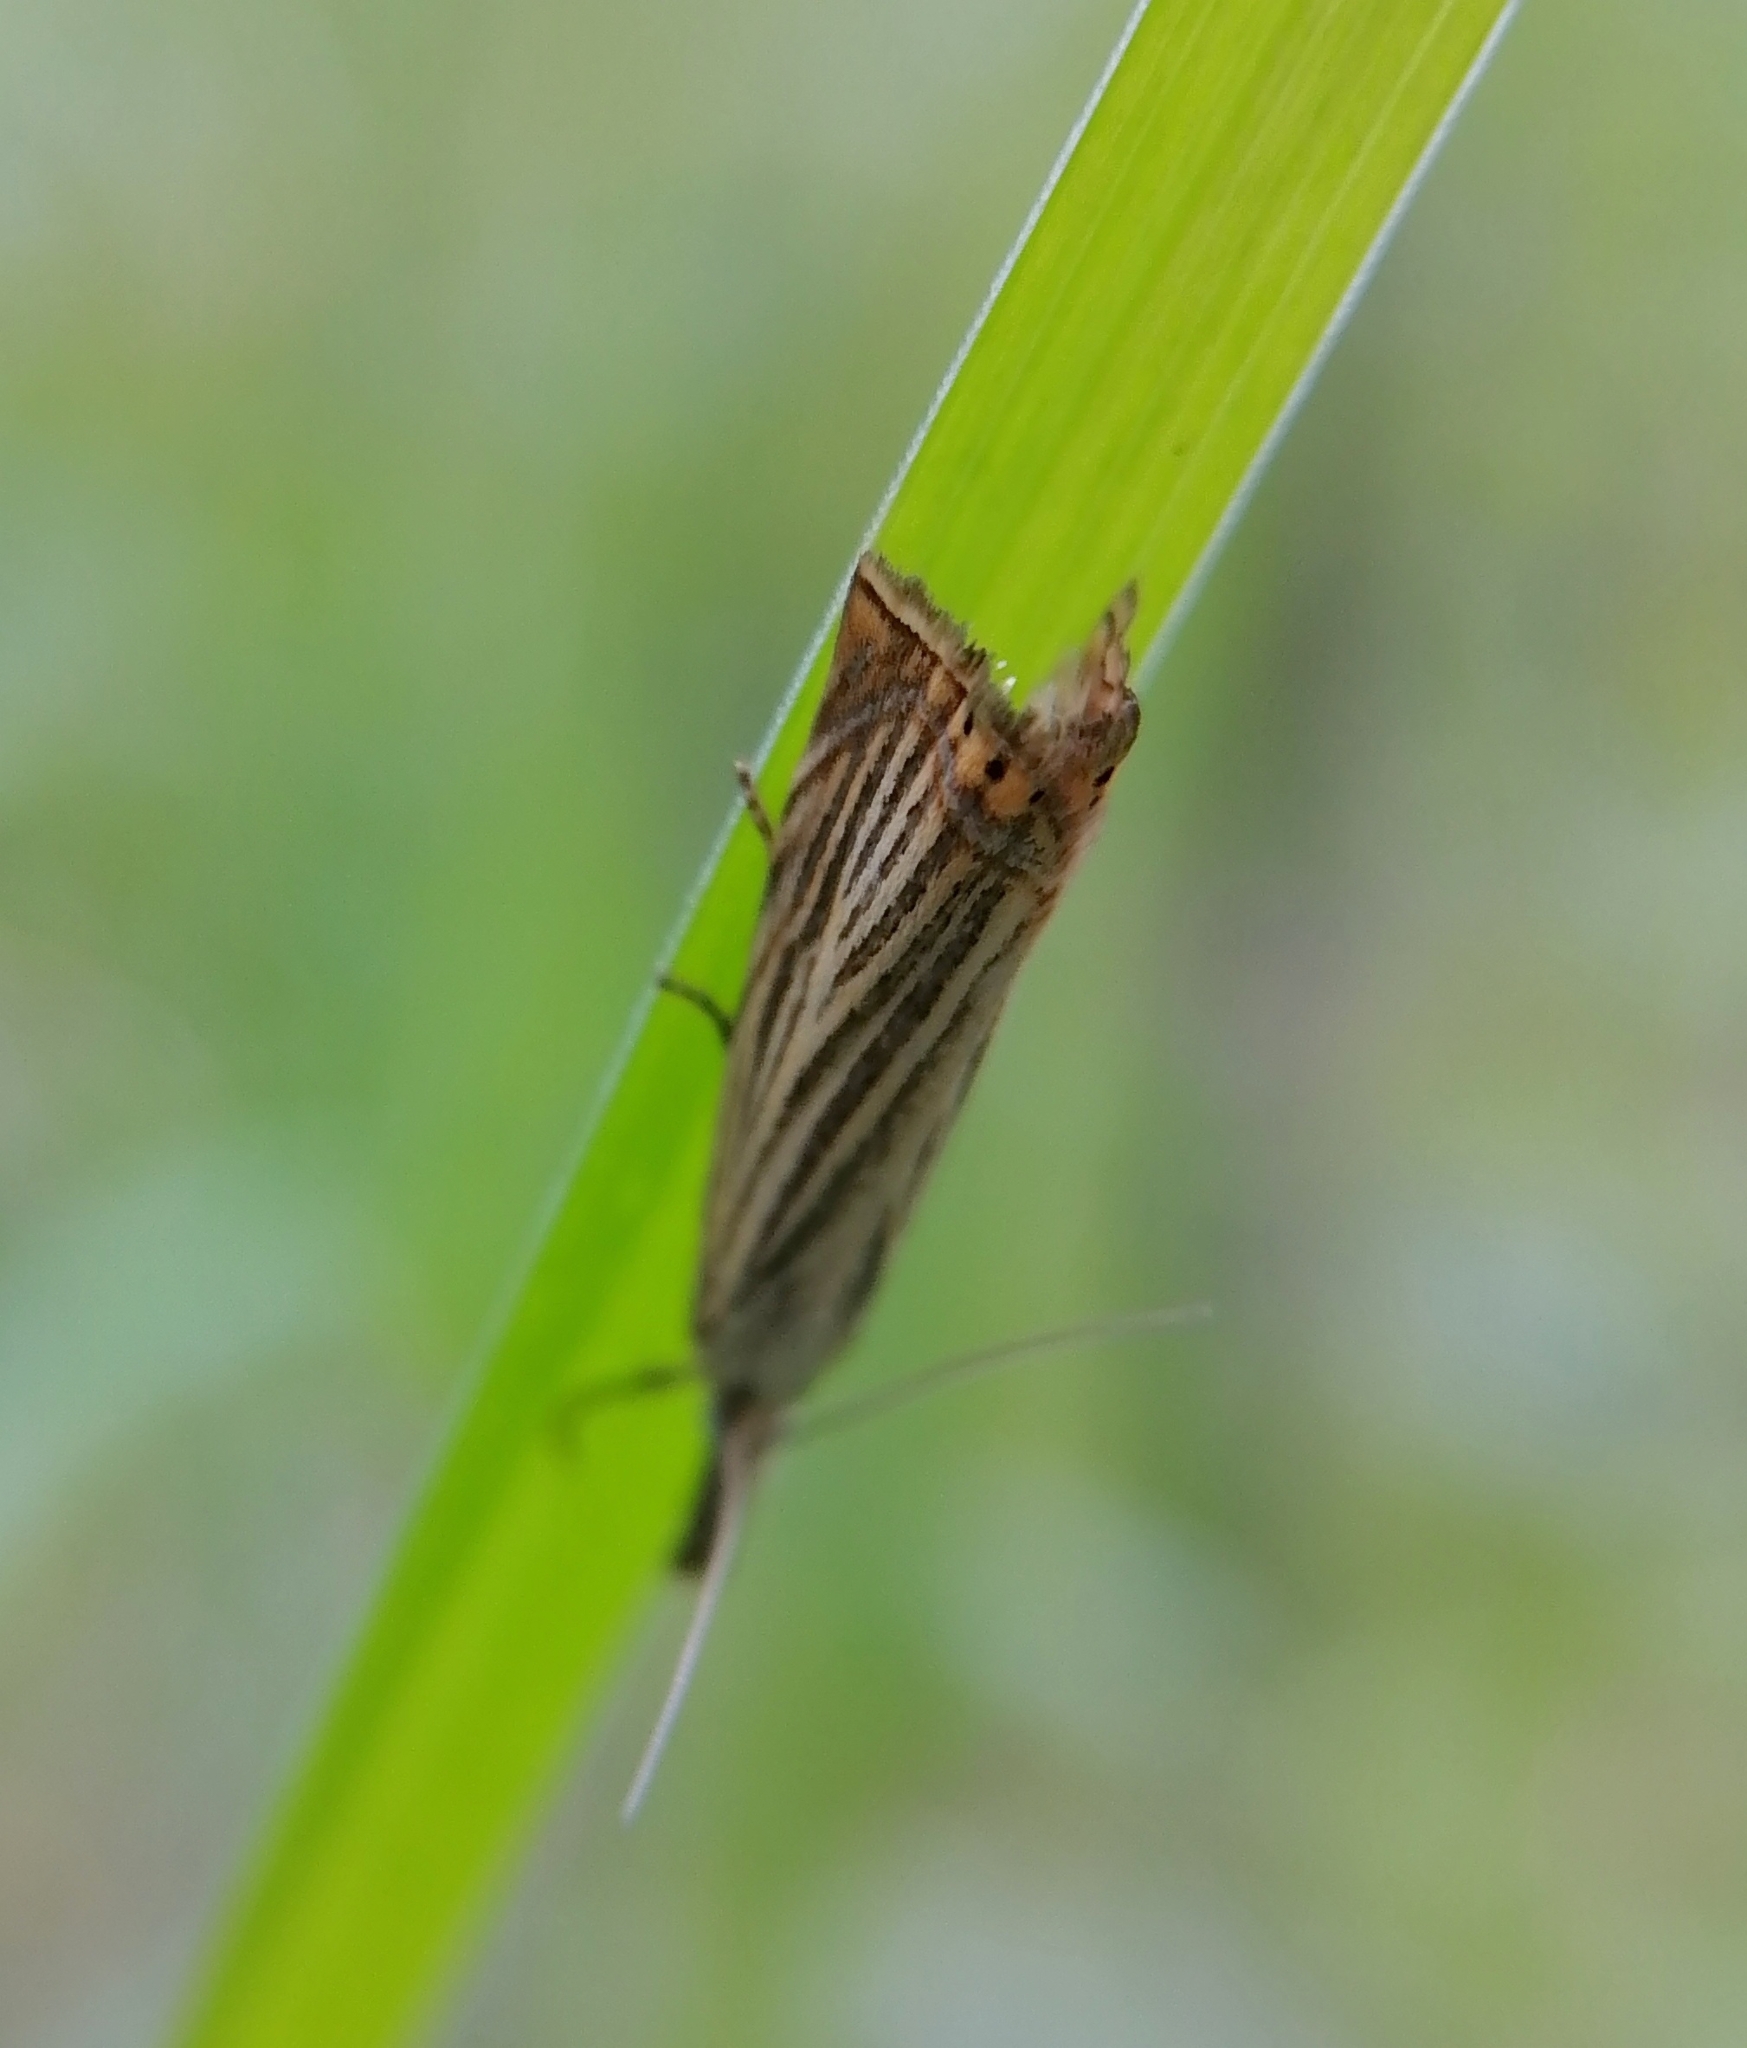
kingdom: Animalia
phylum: Arthropoda
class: Insecta
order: Lepidoptera
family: Crambidae
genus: Chrysoteuchia
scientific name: Chrysoteuchia culmella
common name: Garden grass-veneer
